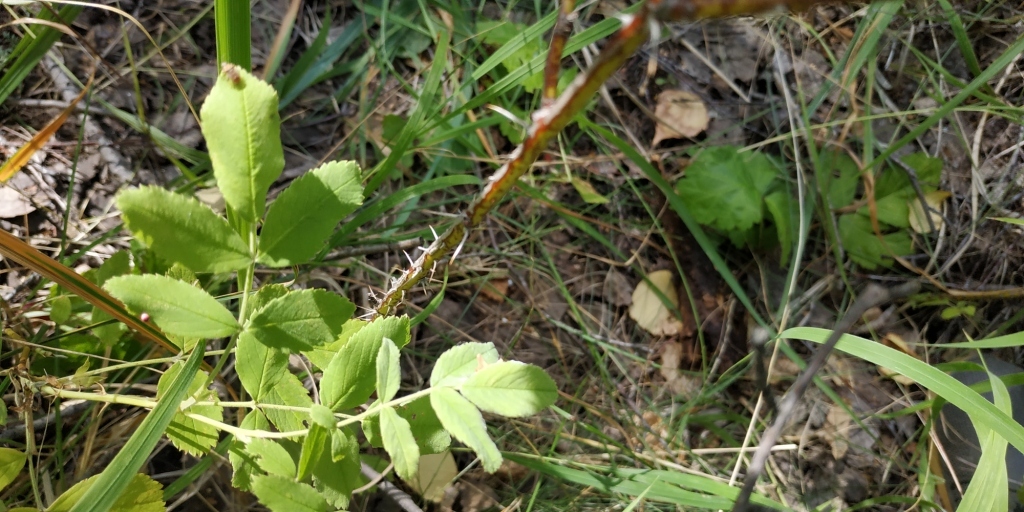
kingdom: Plantae
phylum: Tracheophyta
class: Magnoliopsida
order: Rosales
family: Rosaceae
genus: Rosa
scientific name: Rosa
